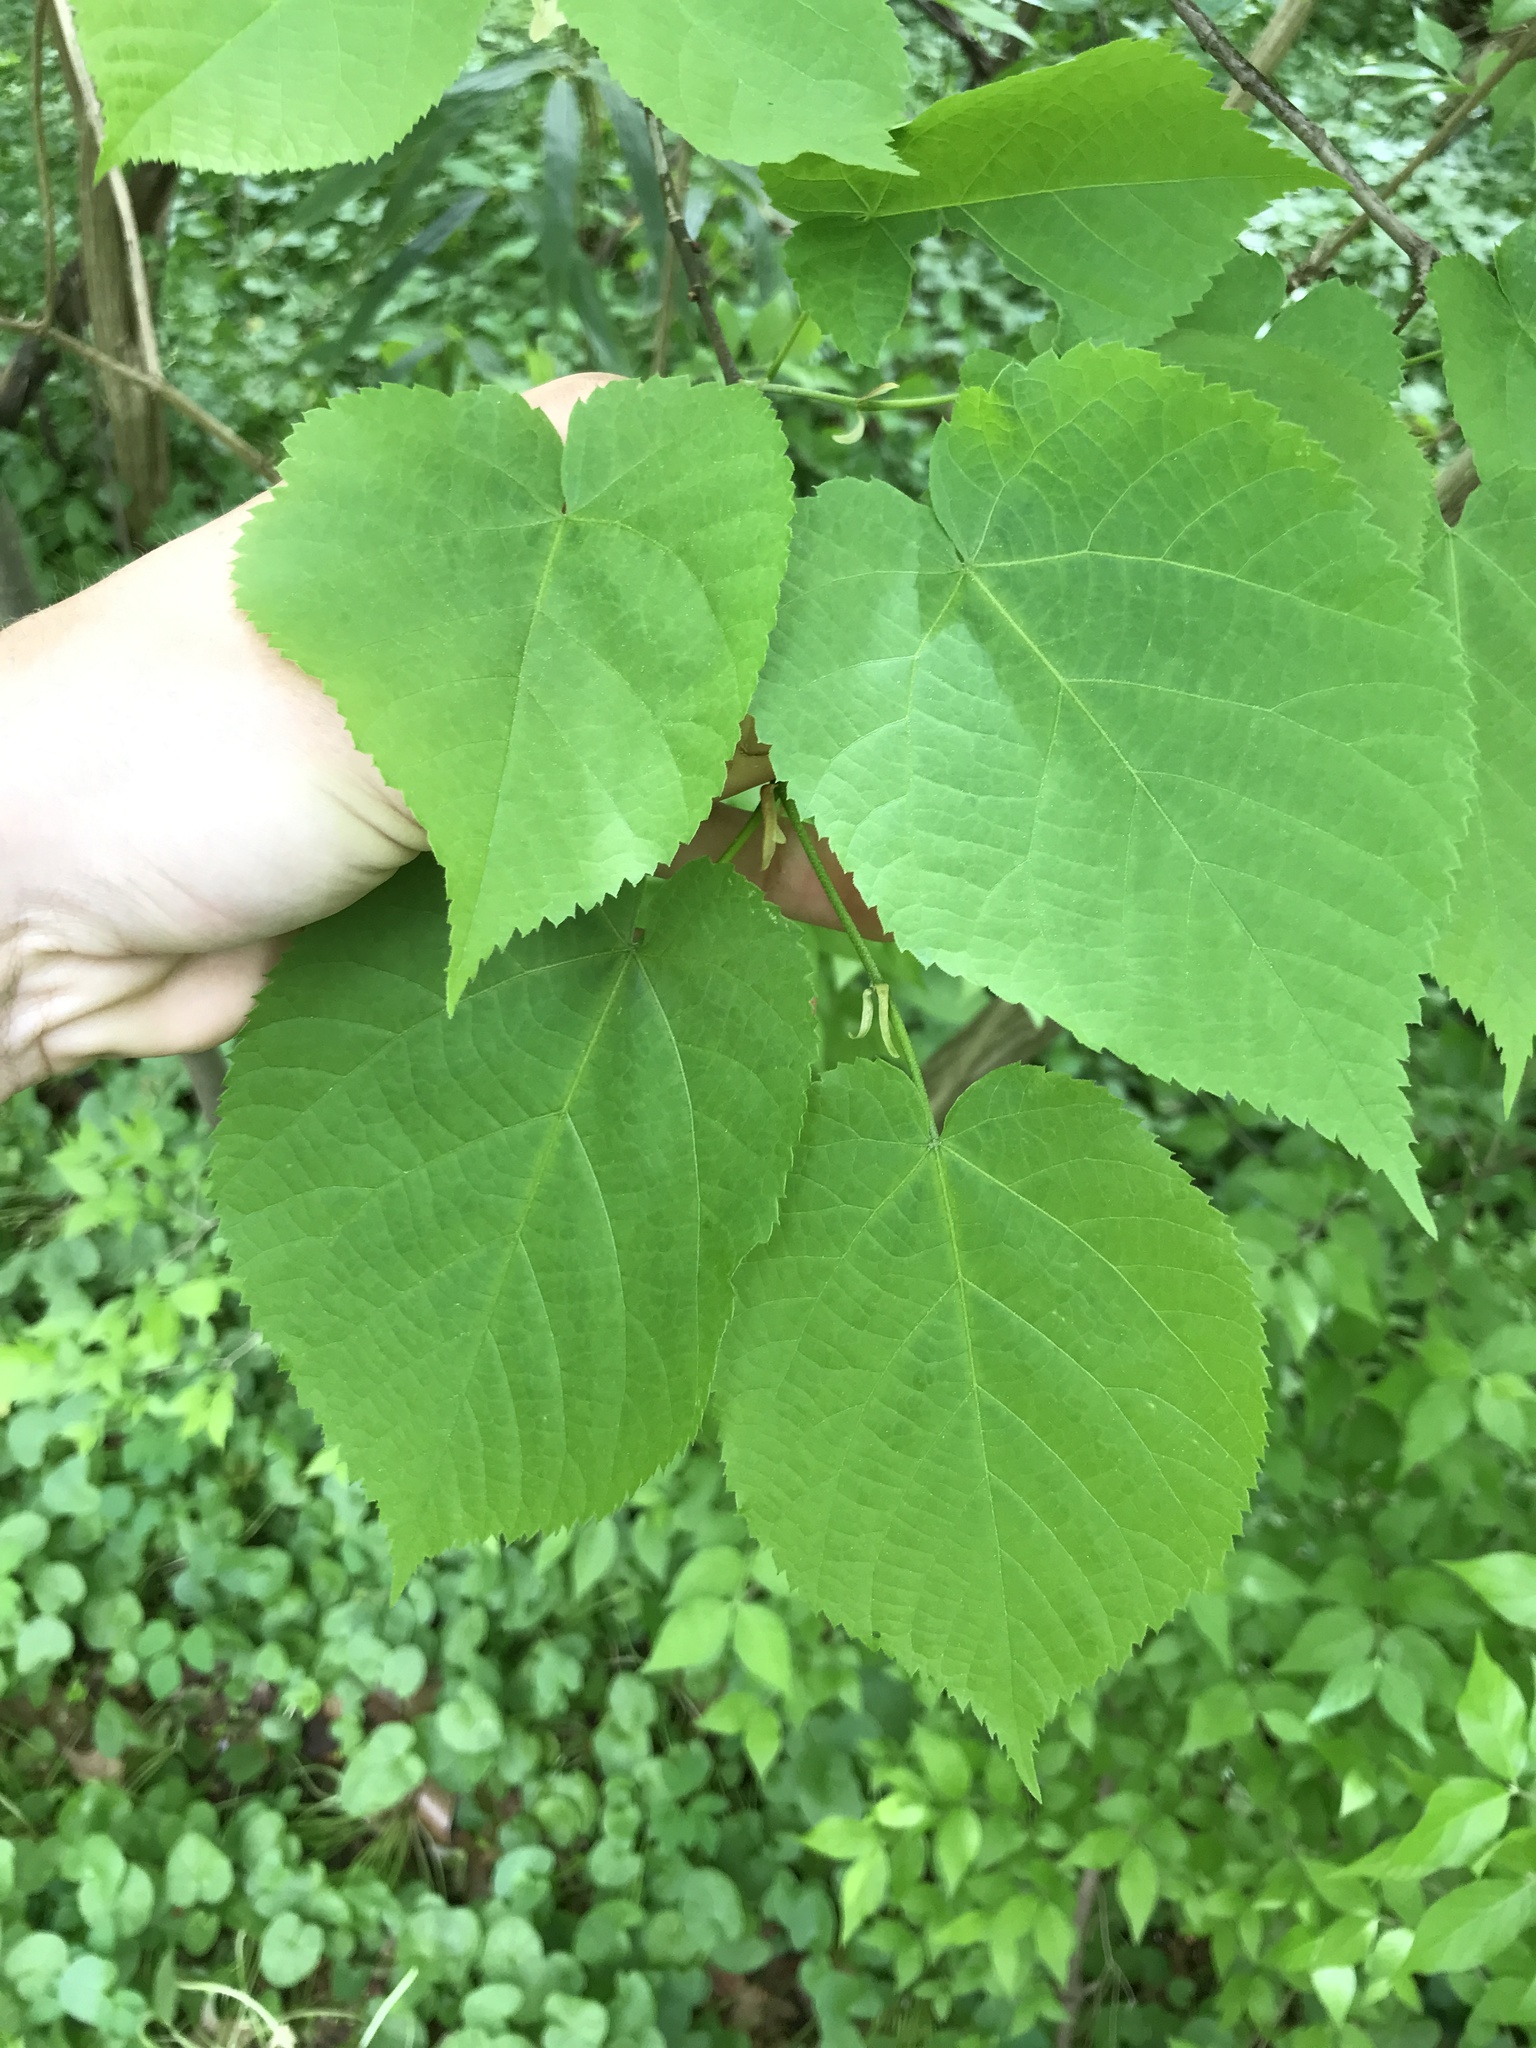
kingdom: Plantae
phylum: Tracheophyta
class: Magnoliopsida
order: Malvales
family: Malvaceae
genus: Tilia
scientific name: Tilia americana
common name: Basswood
